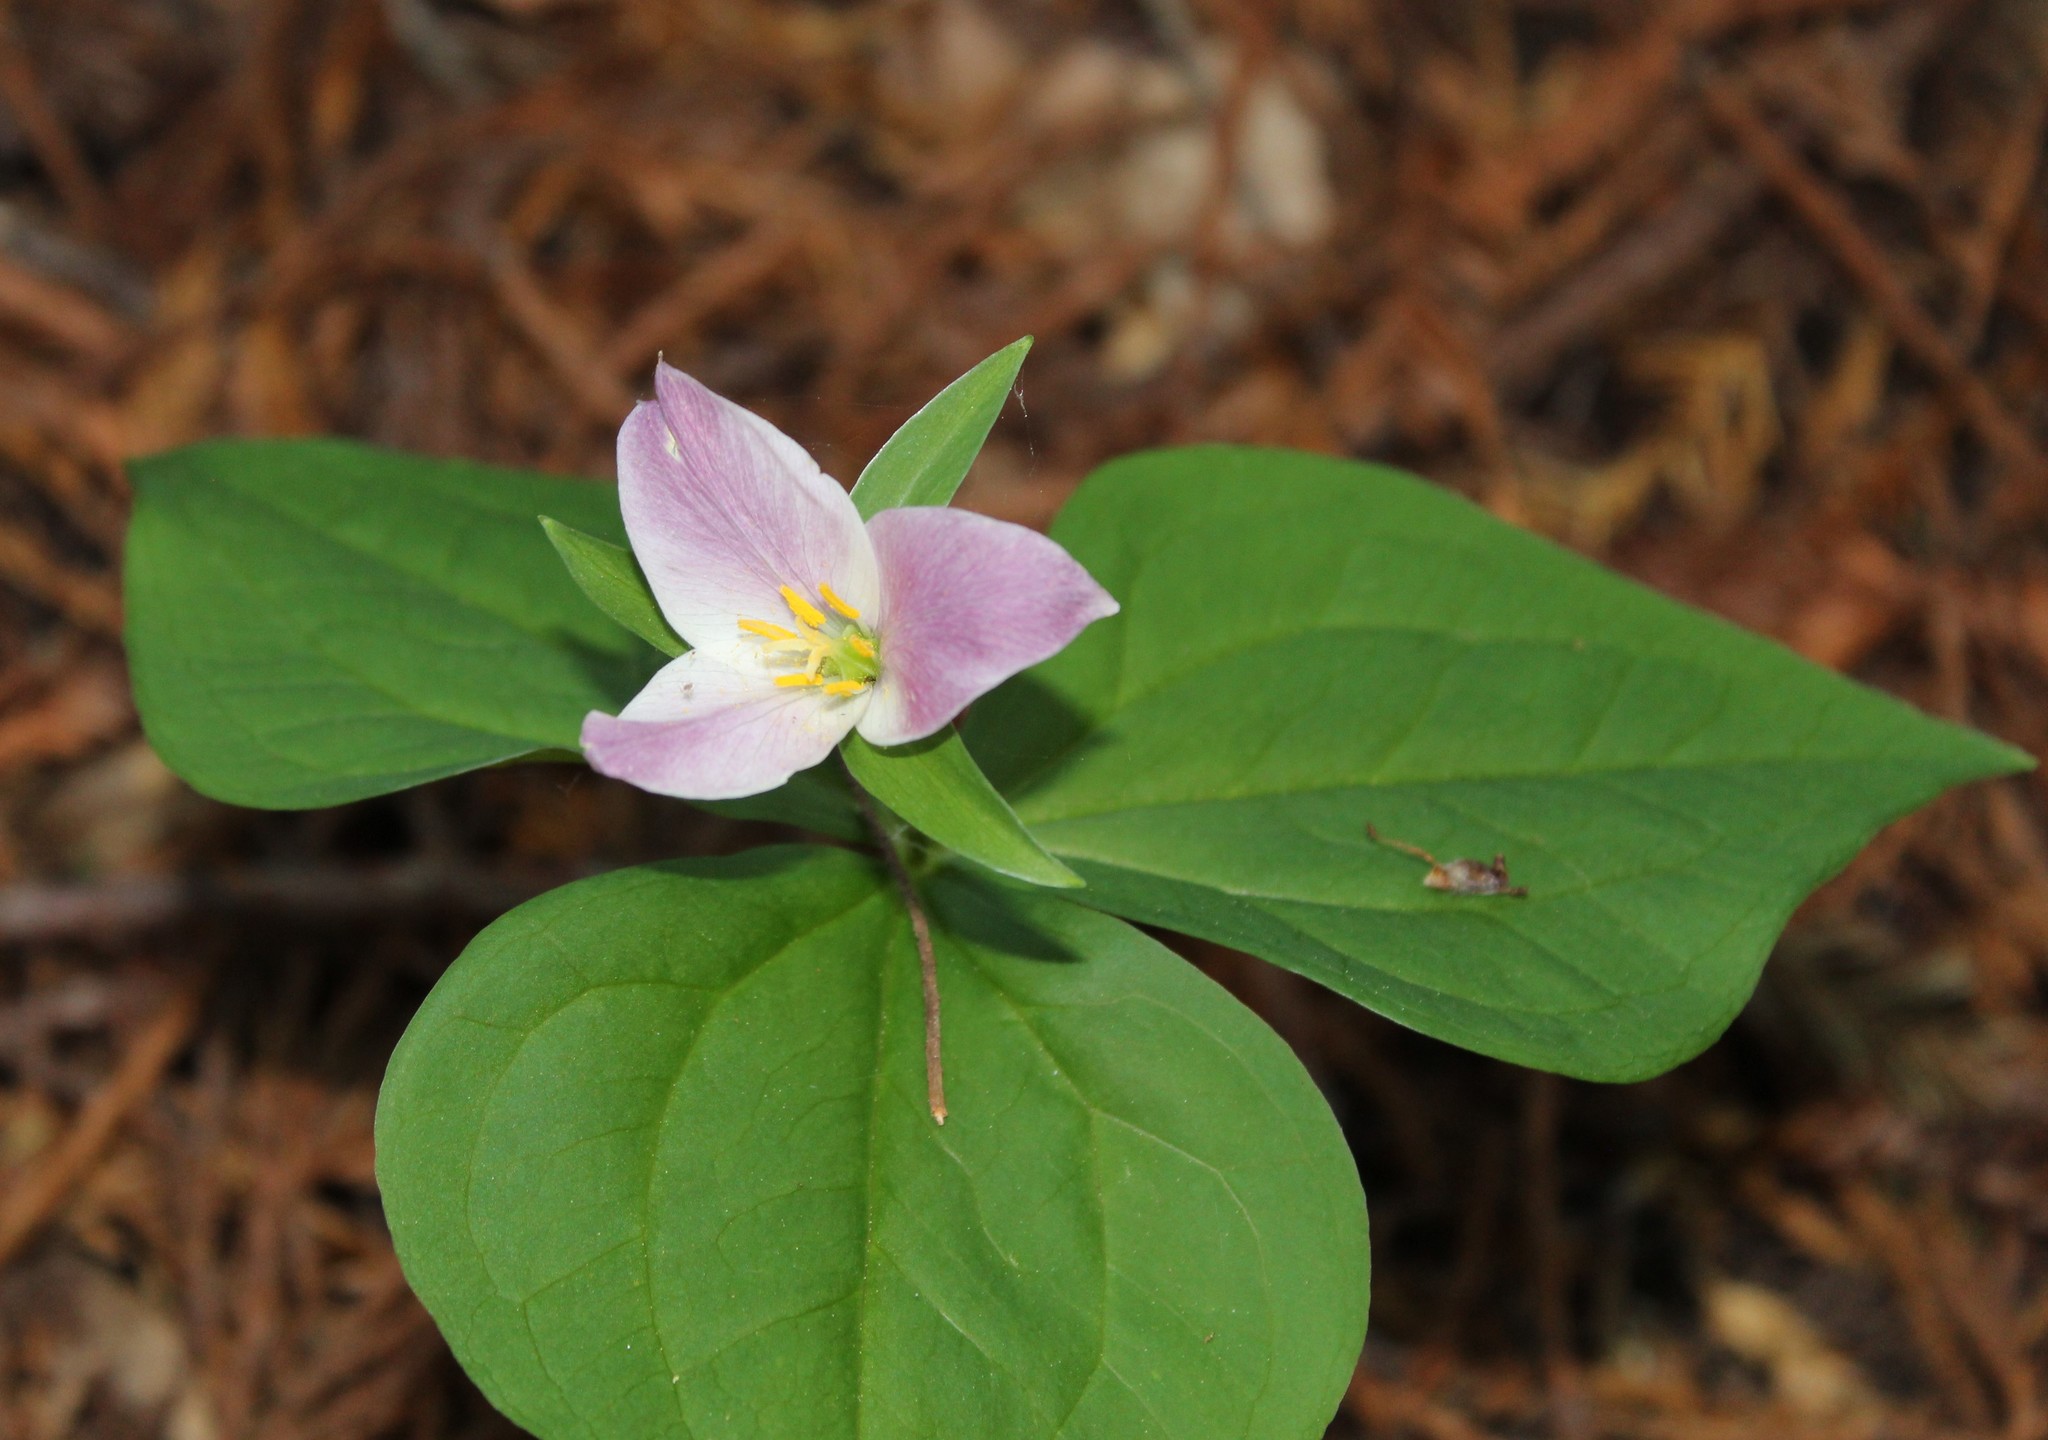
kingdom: Plantae
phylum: Tracheophyta
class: Liliopsida
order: Liliales
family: Melanthiaceae
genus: Trillium
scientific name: Trillium ovatum
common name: Pacific trillium
